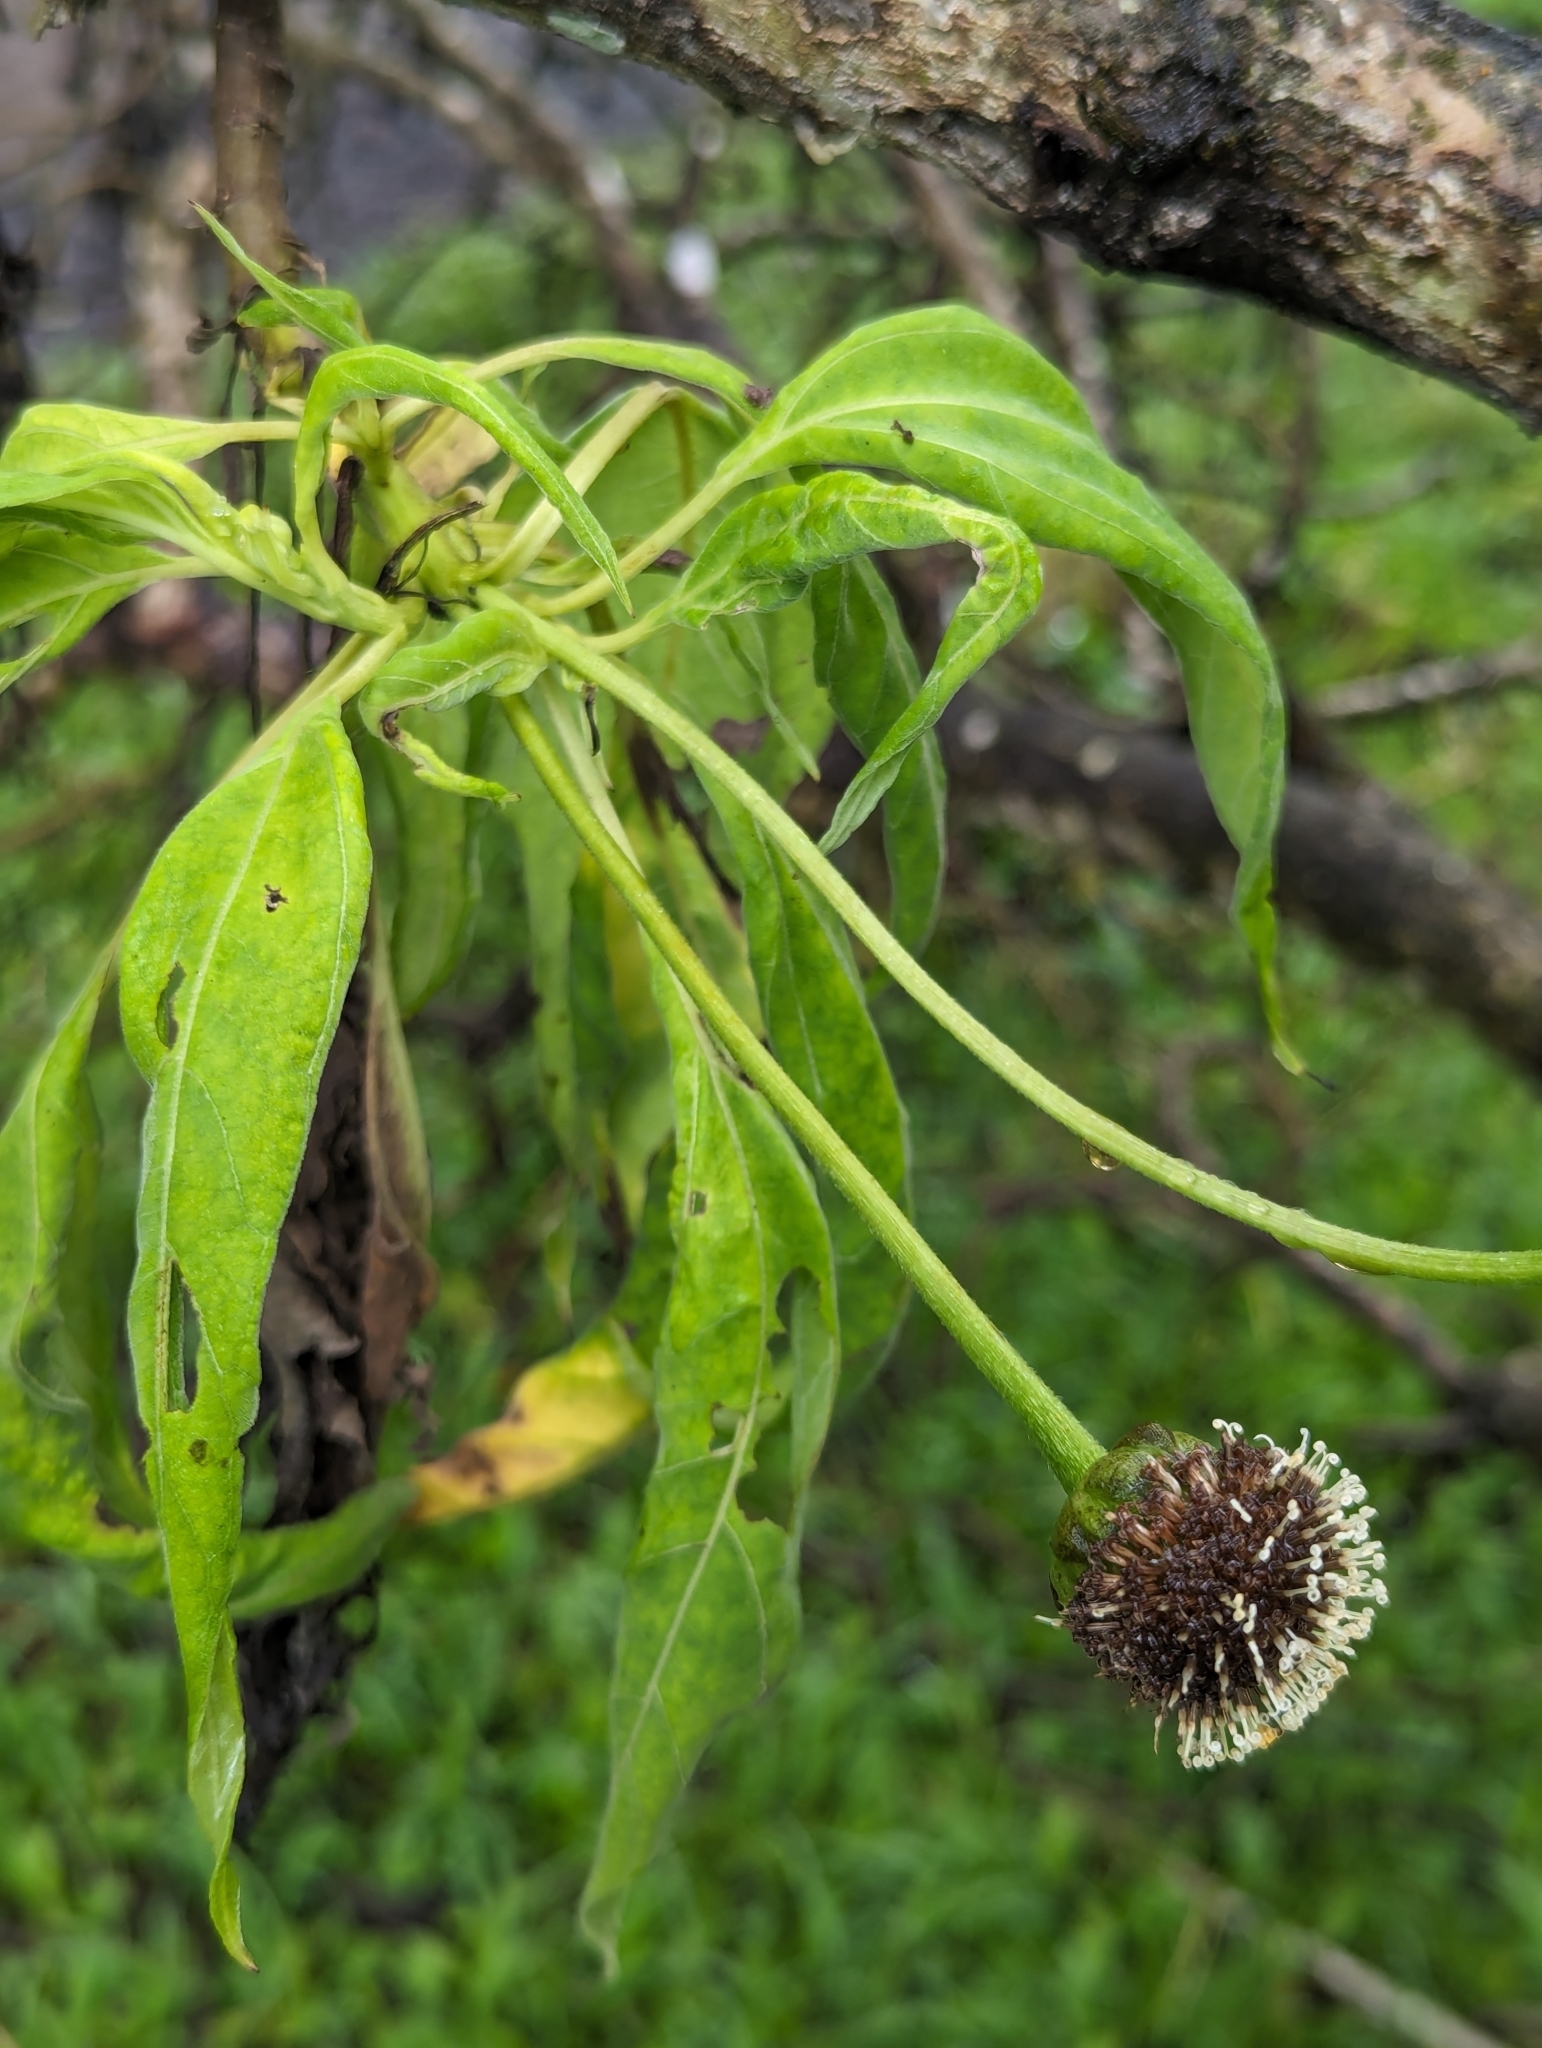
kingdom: Plantae
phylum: Tracheophyta
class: Magnoliopsida
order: Asterales
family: Asteraceae
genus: Scalesia
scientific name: Scalesia pedunculata
